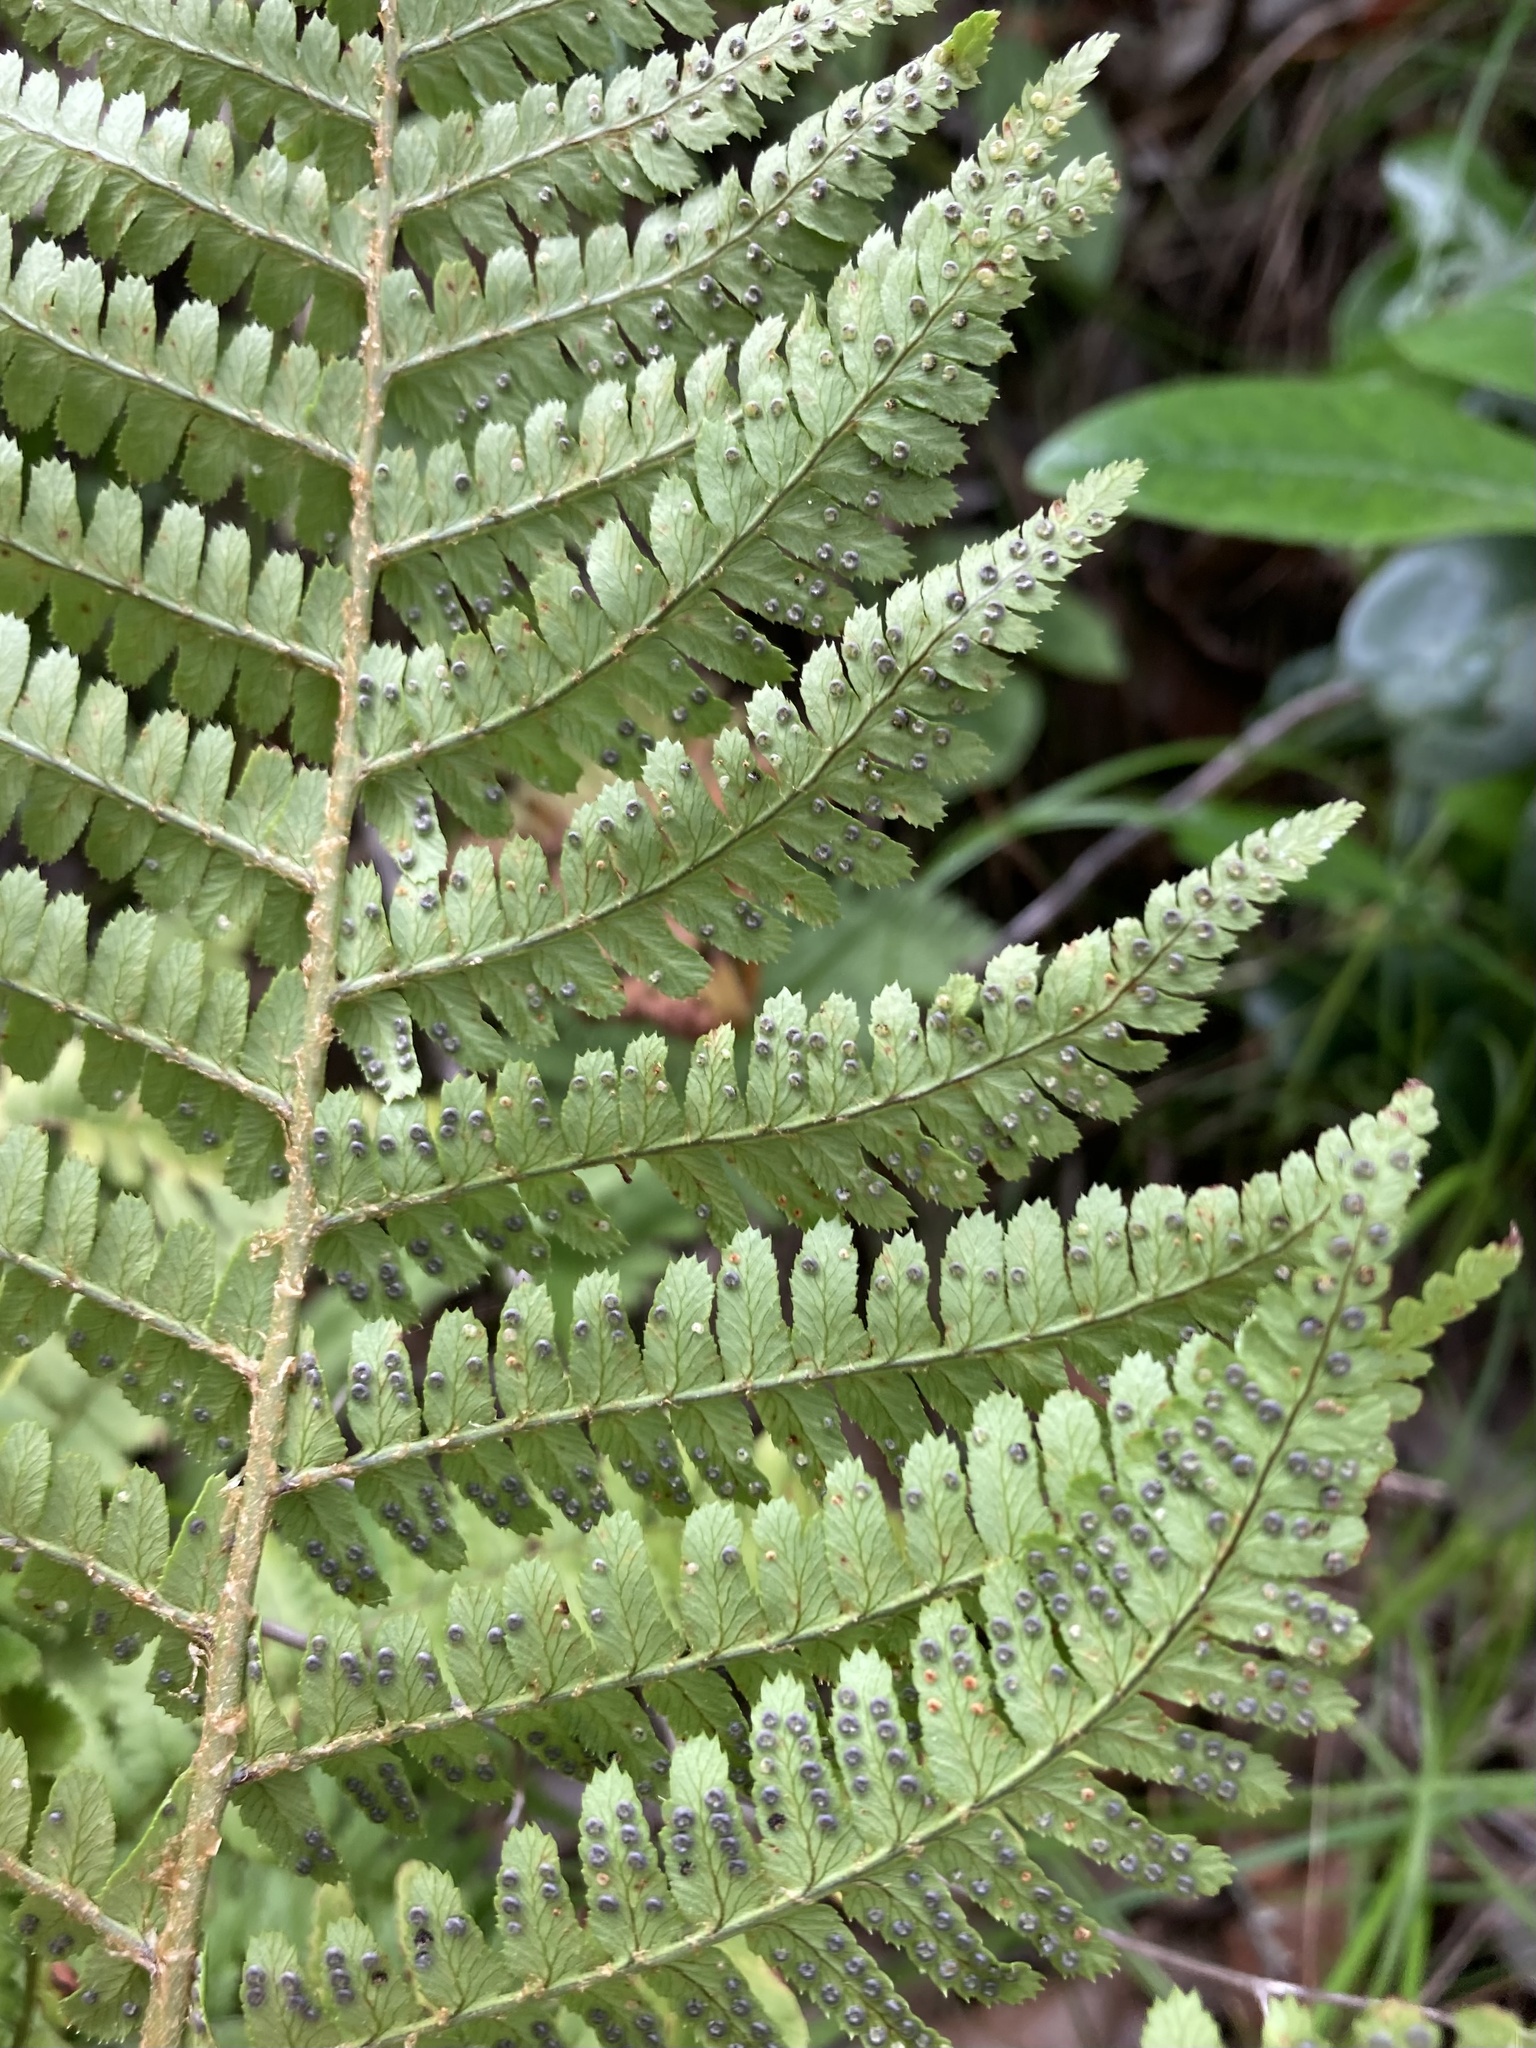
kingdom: Plantae
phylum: Tracheophyta
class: Polypodiopsida
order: Polypodiales
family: Dryopteridaceae
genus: Dryopteris
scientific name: Dryopteris arguta
